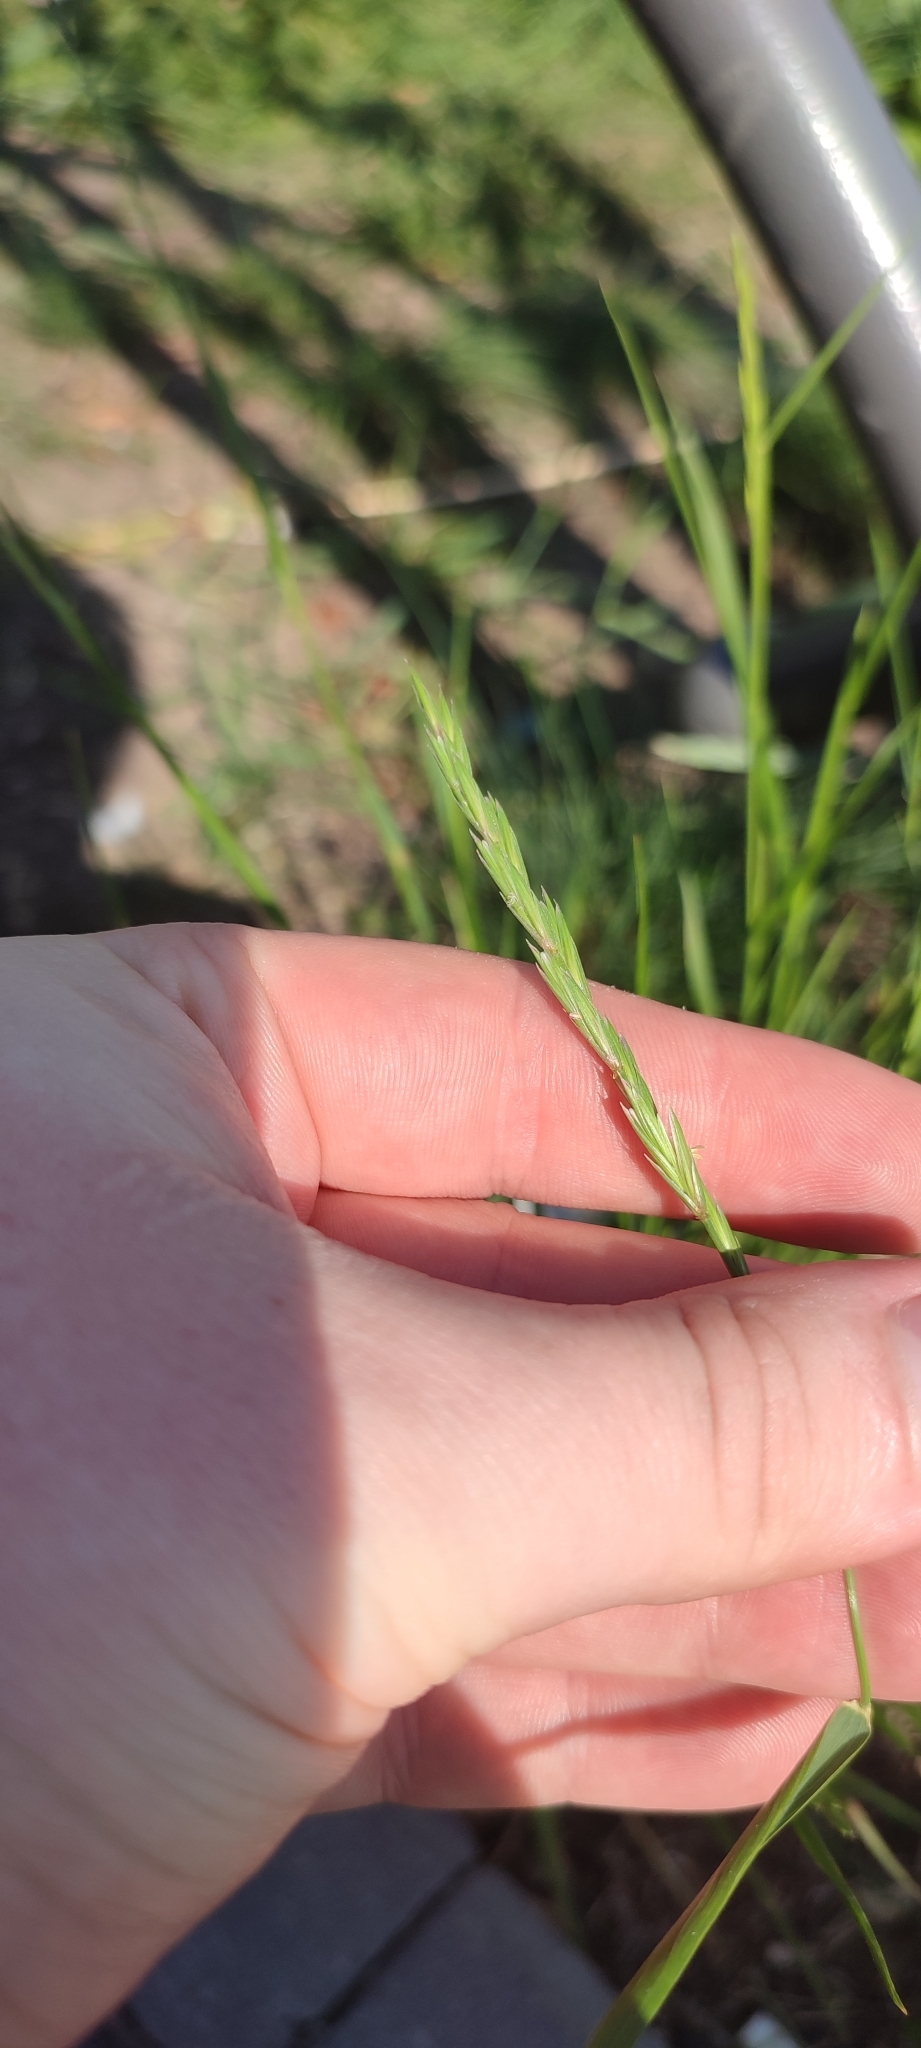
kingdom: Plantae
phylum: Tracheophyta
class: Liliopsida
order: Poales
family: Poaceae
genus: Elymus
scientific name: Elymus repens
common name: Quackgrass
